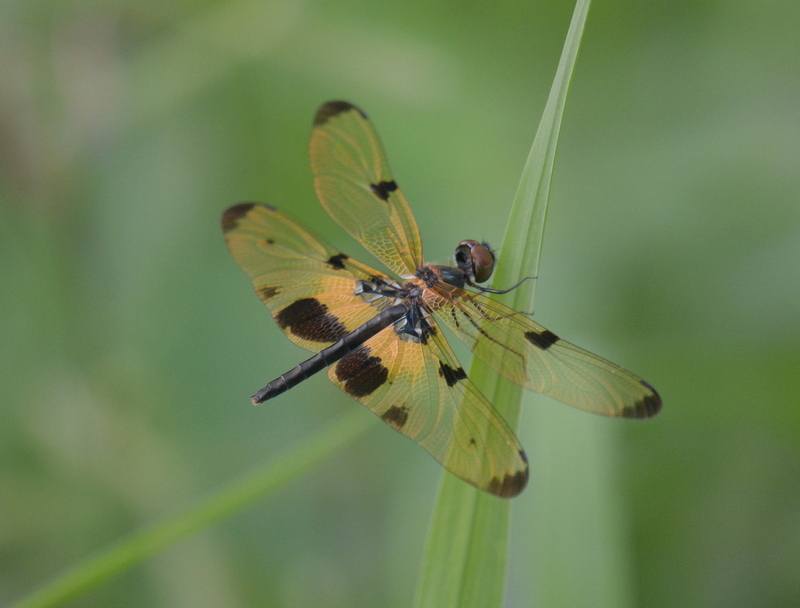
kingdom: Animalia
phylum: Arthropoda
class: Insecta
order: Odonata
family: Libellulidae
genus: Rhyothemis
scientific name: Rhyothemis phyllis
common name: Yellow-barred flutterer
